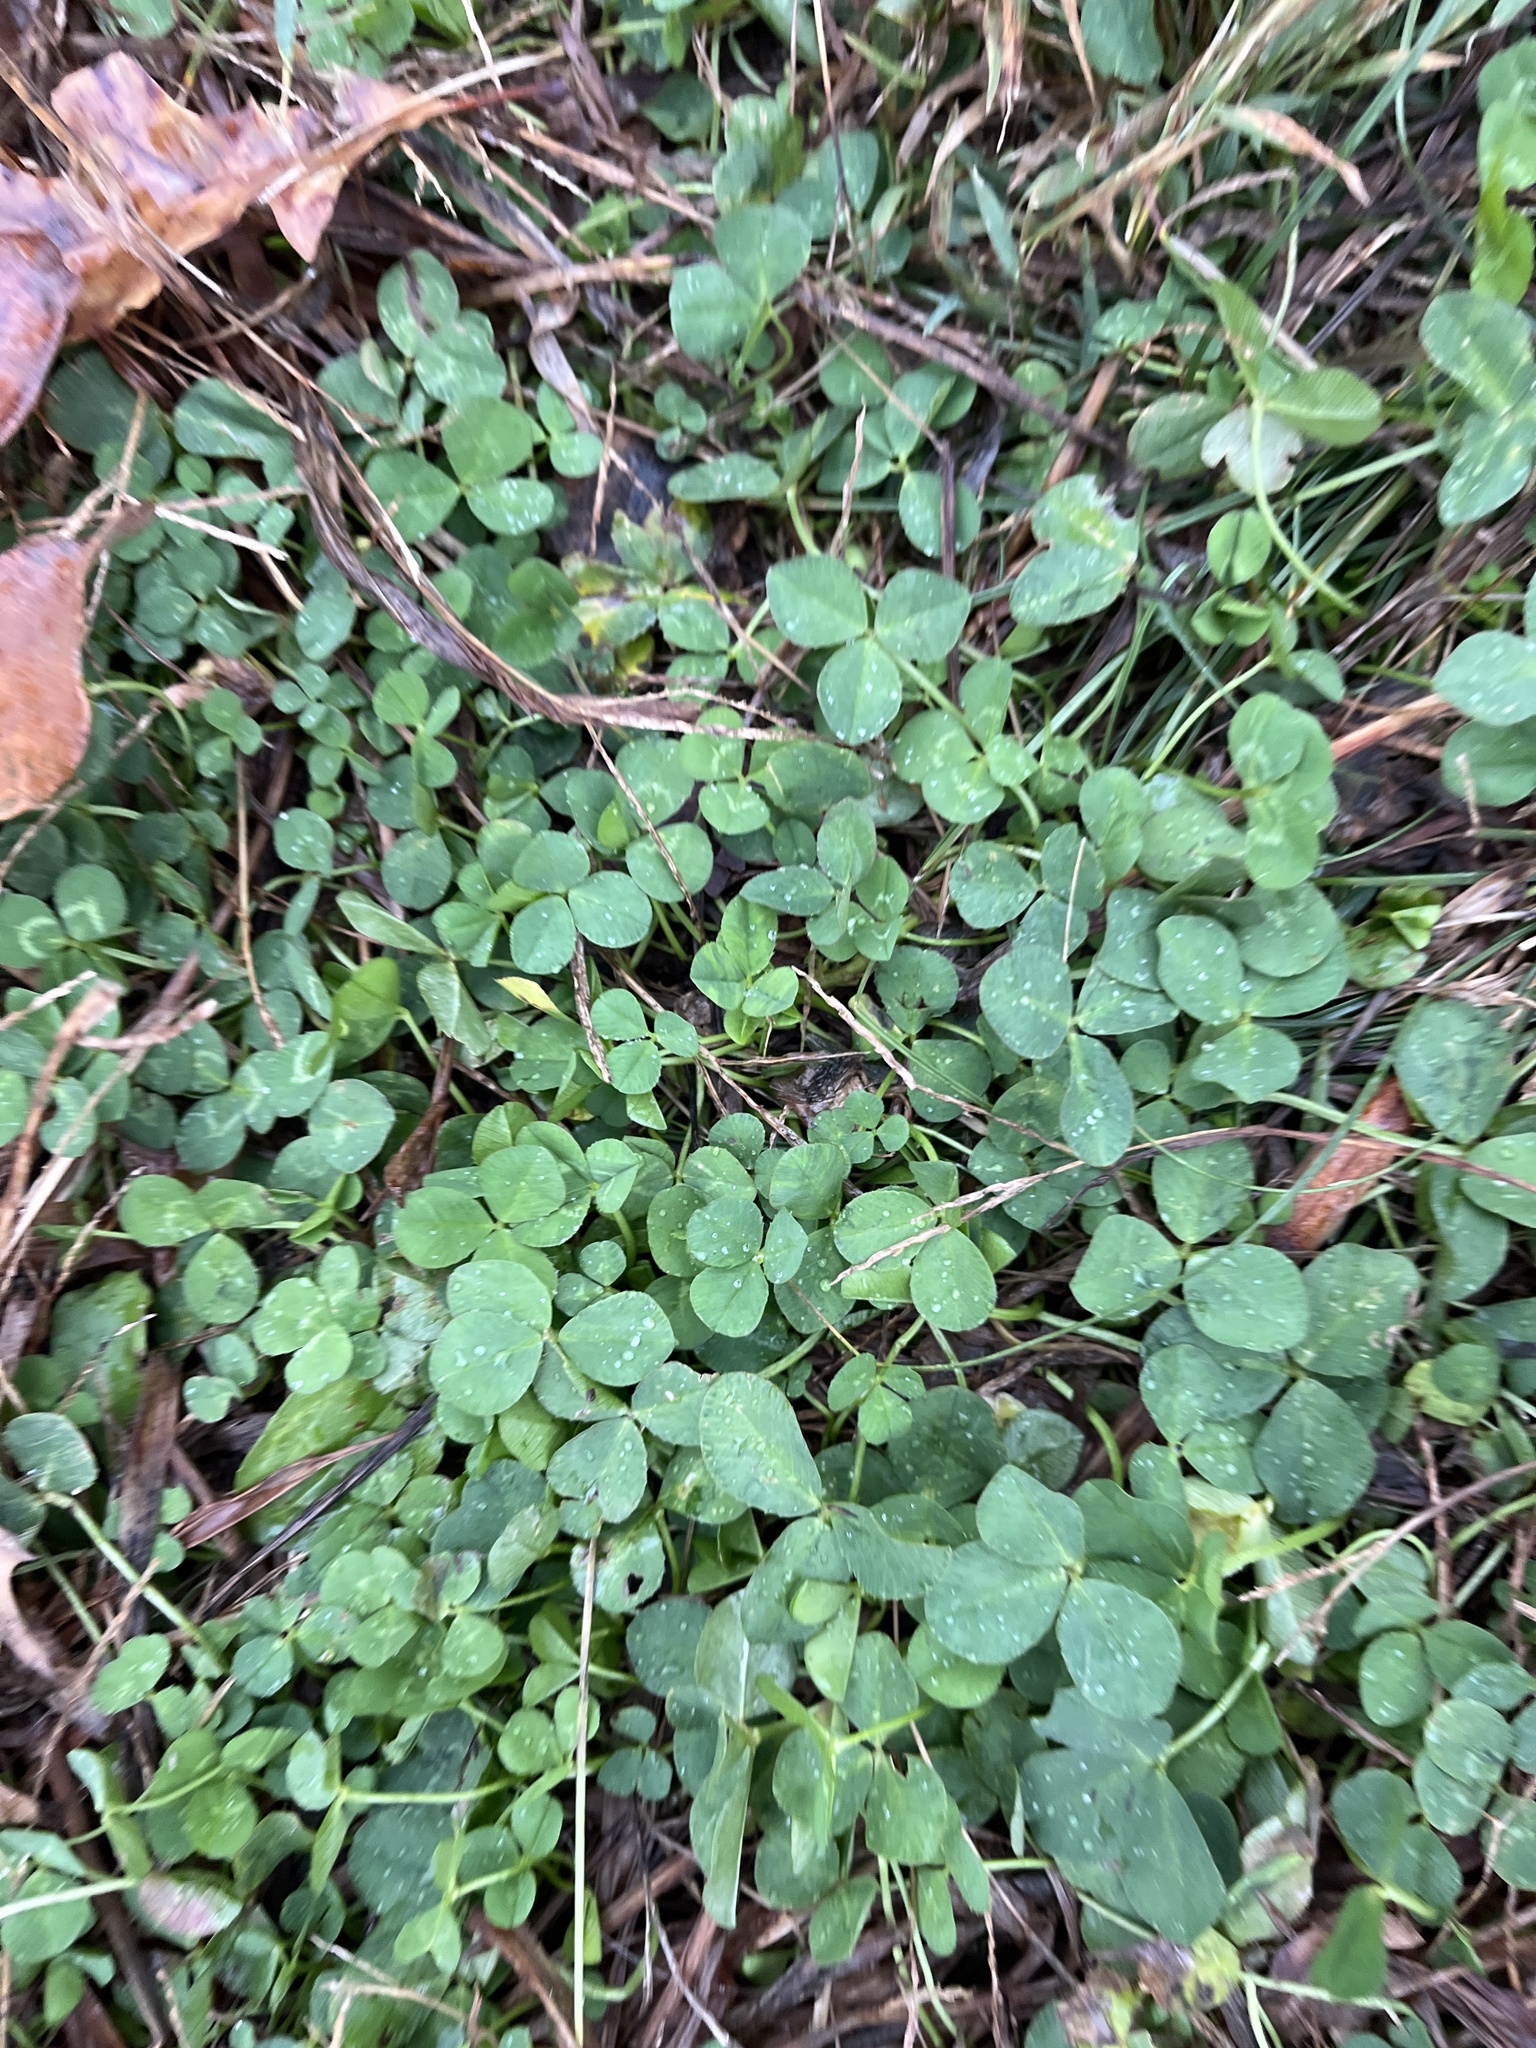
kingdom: Plantae
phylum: Tracheophyta
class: Magnoliopsida
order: Fabales
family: Fabaceae
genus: Trifolium
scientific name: Trifolium repens
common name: White clover
